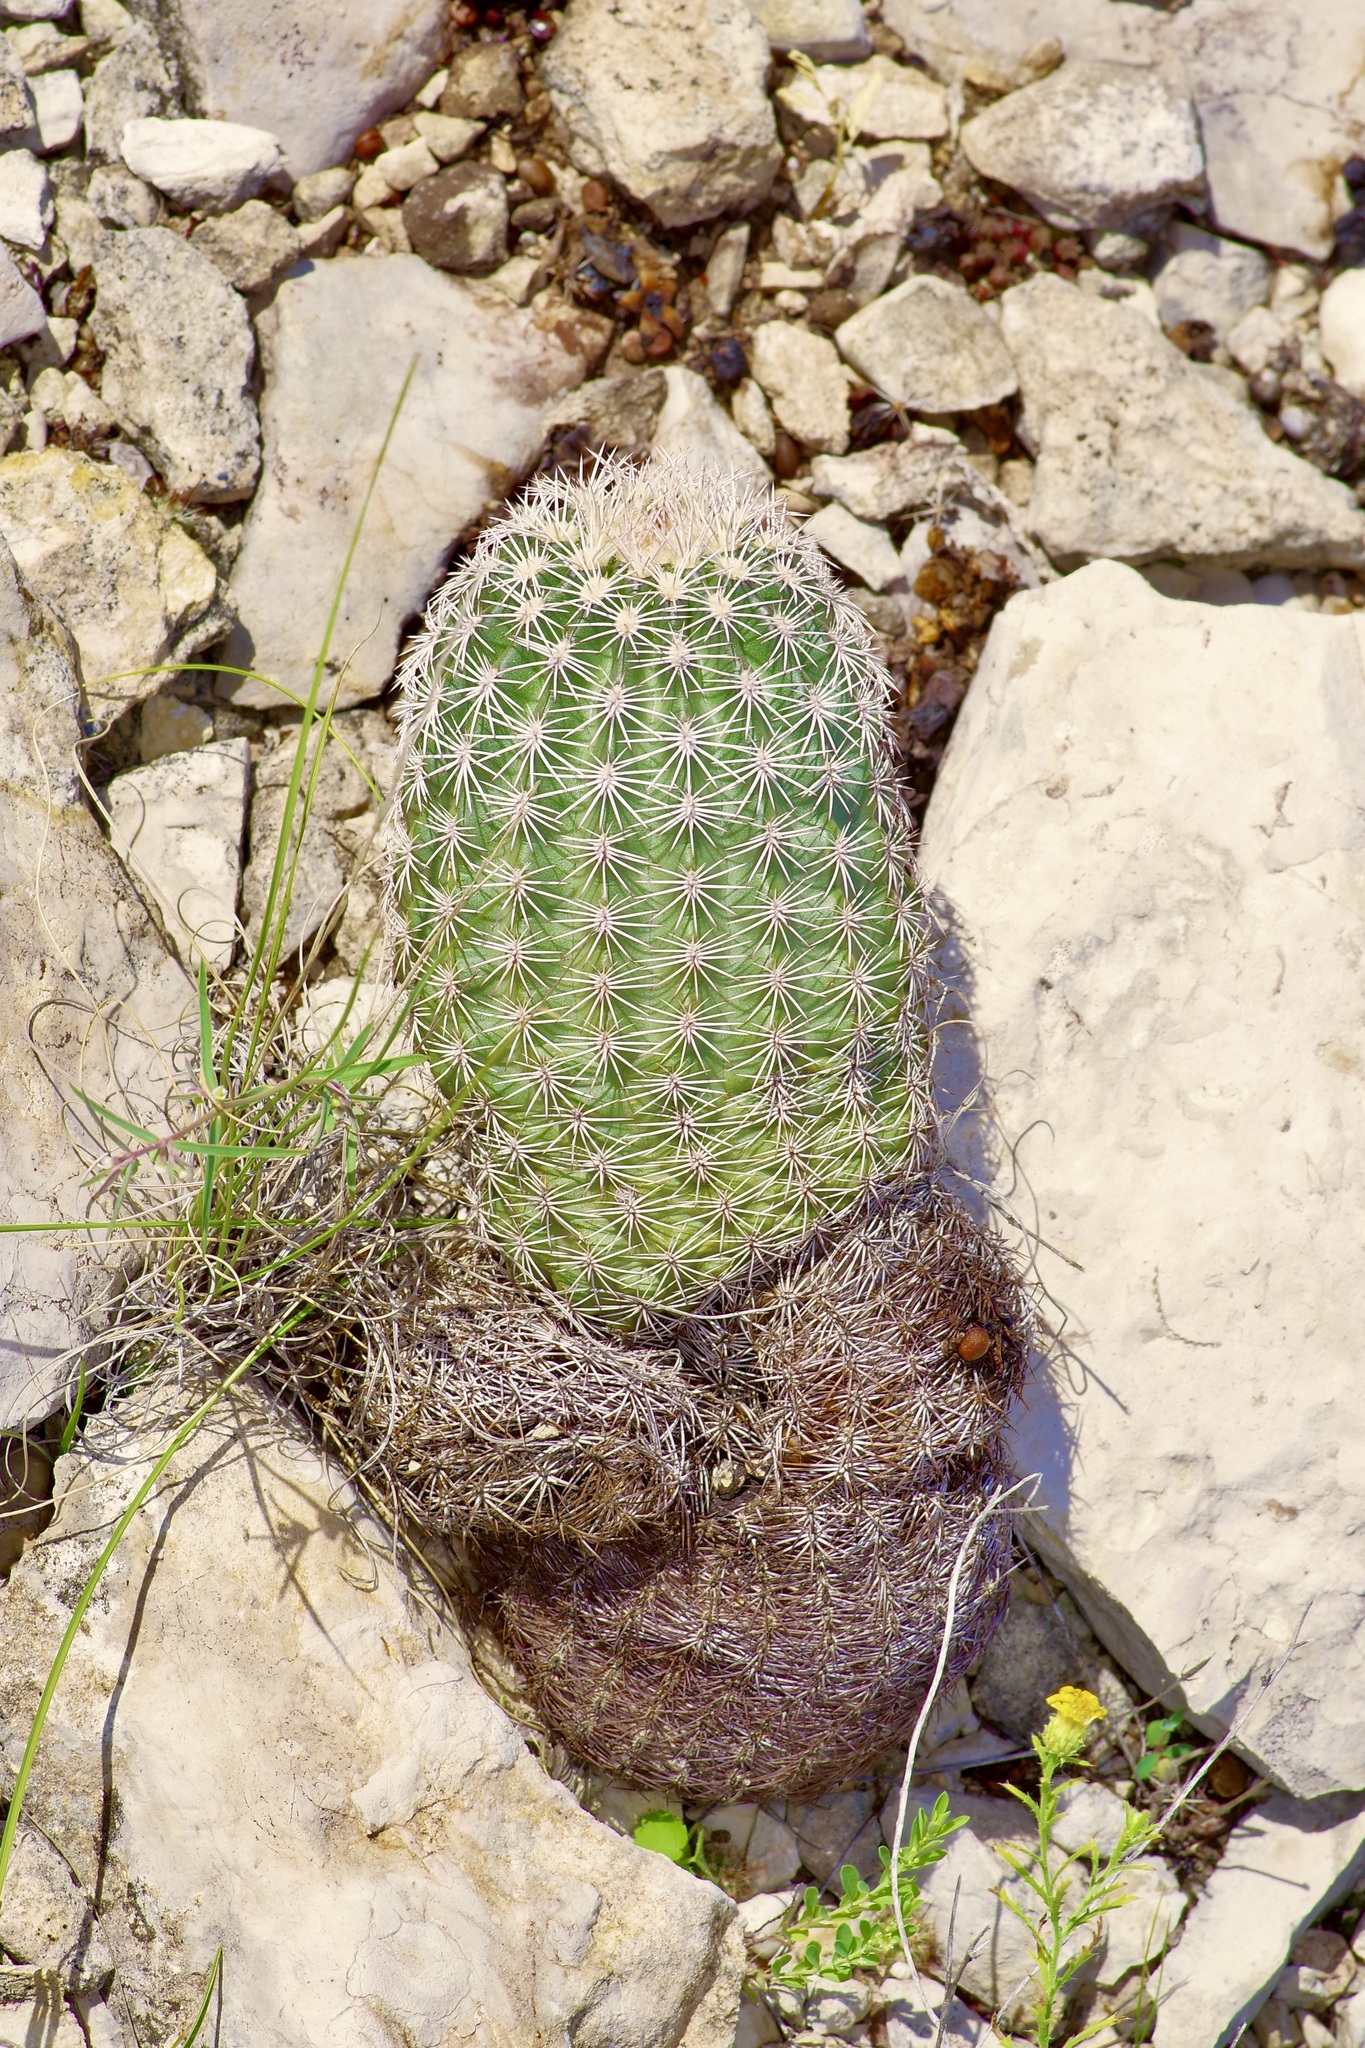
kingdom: Plantae
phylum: Tracheophyta
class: Magnoliopsida
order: Caryophyllales
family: Cactaceae
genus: Echinocereus
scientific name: Echinocereus pectinatus
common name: Rainbow cactus
